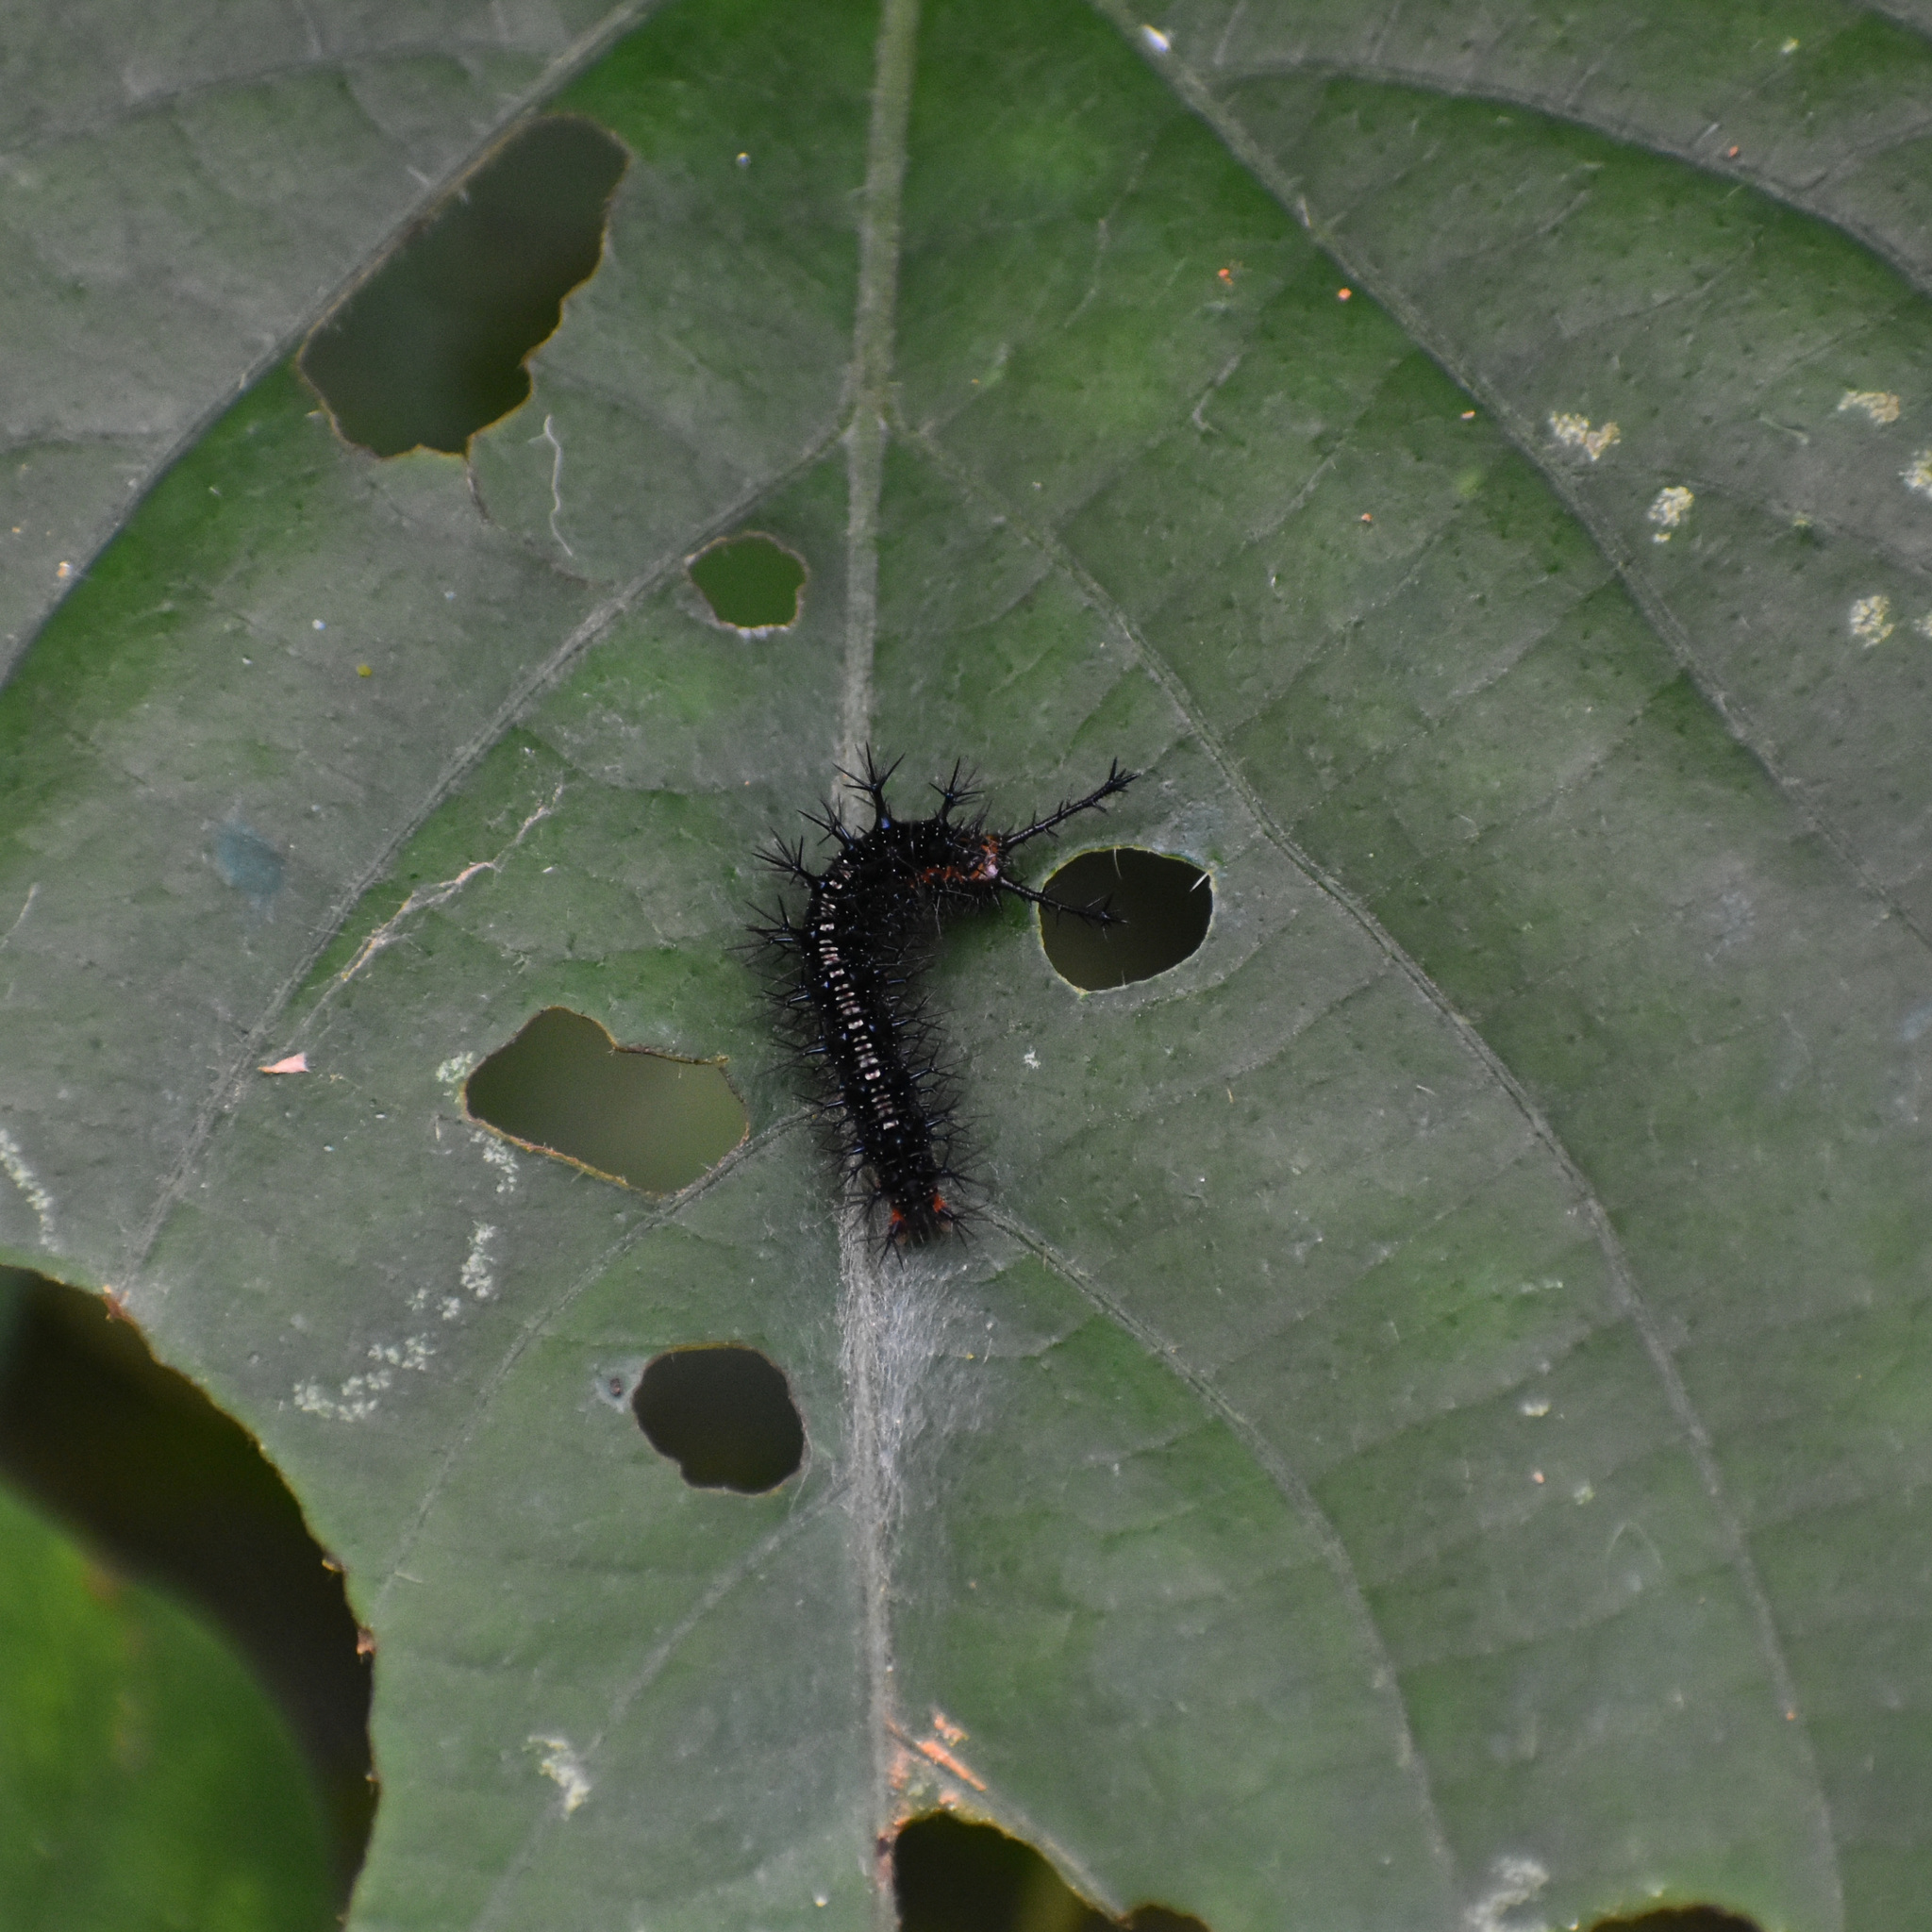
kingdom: Animalia
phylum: Arthropoda
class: Insecta
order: Lepidoptera
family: Nymphalidae
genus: Ariadne
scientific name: Ariadne ariadne
